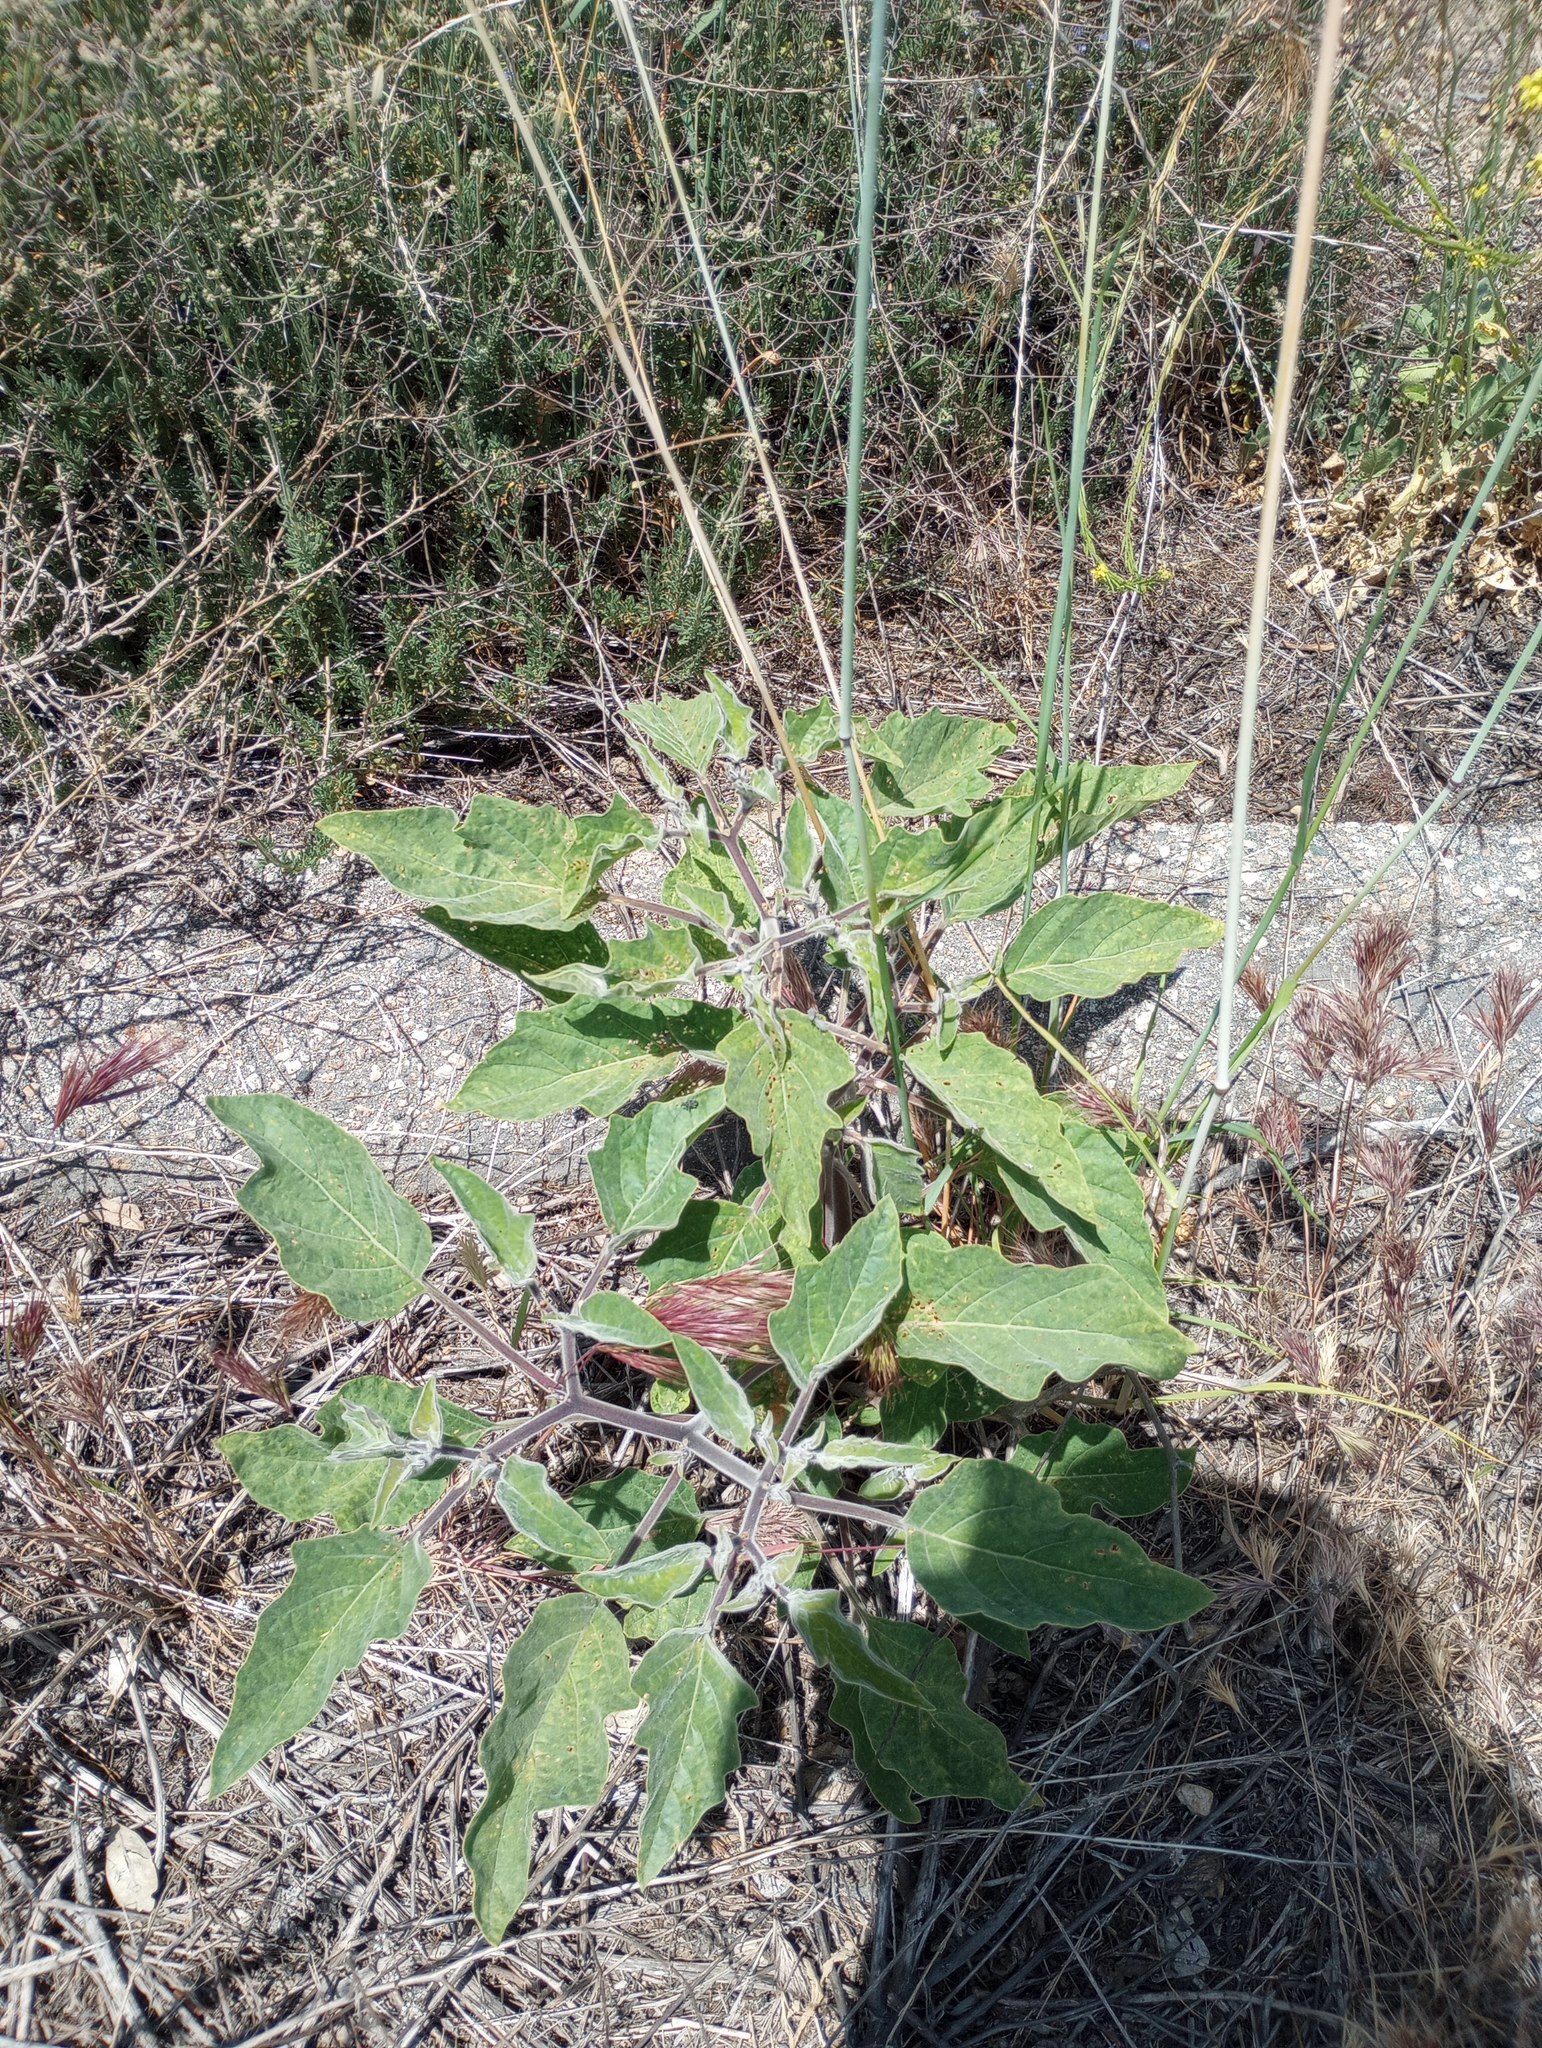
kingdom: Plantae
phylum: Tracheophyta
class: Magnoliopsida
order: Solanales
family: Solanaceae
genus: Datura
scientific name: Datura wrightii
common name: Sacred thorn-apple
